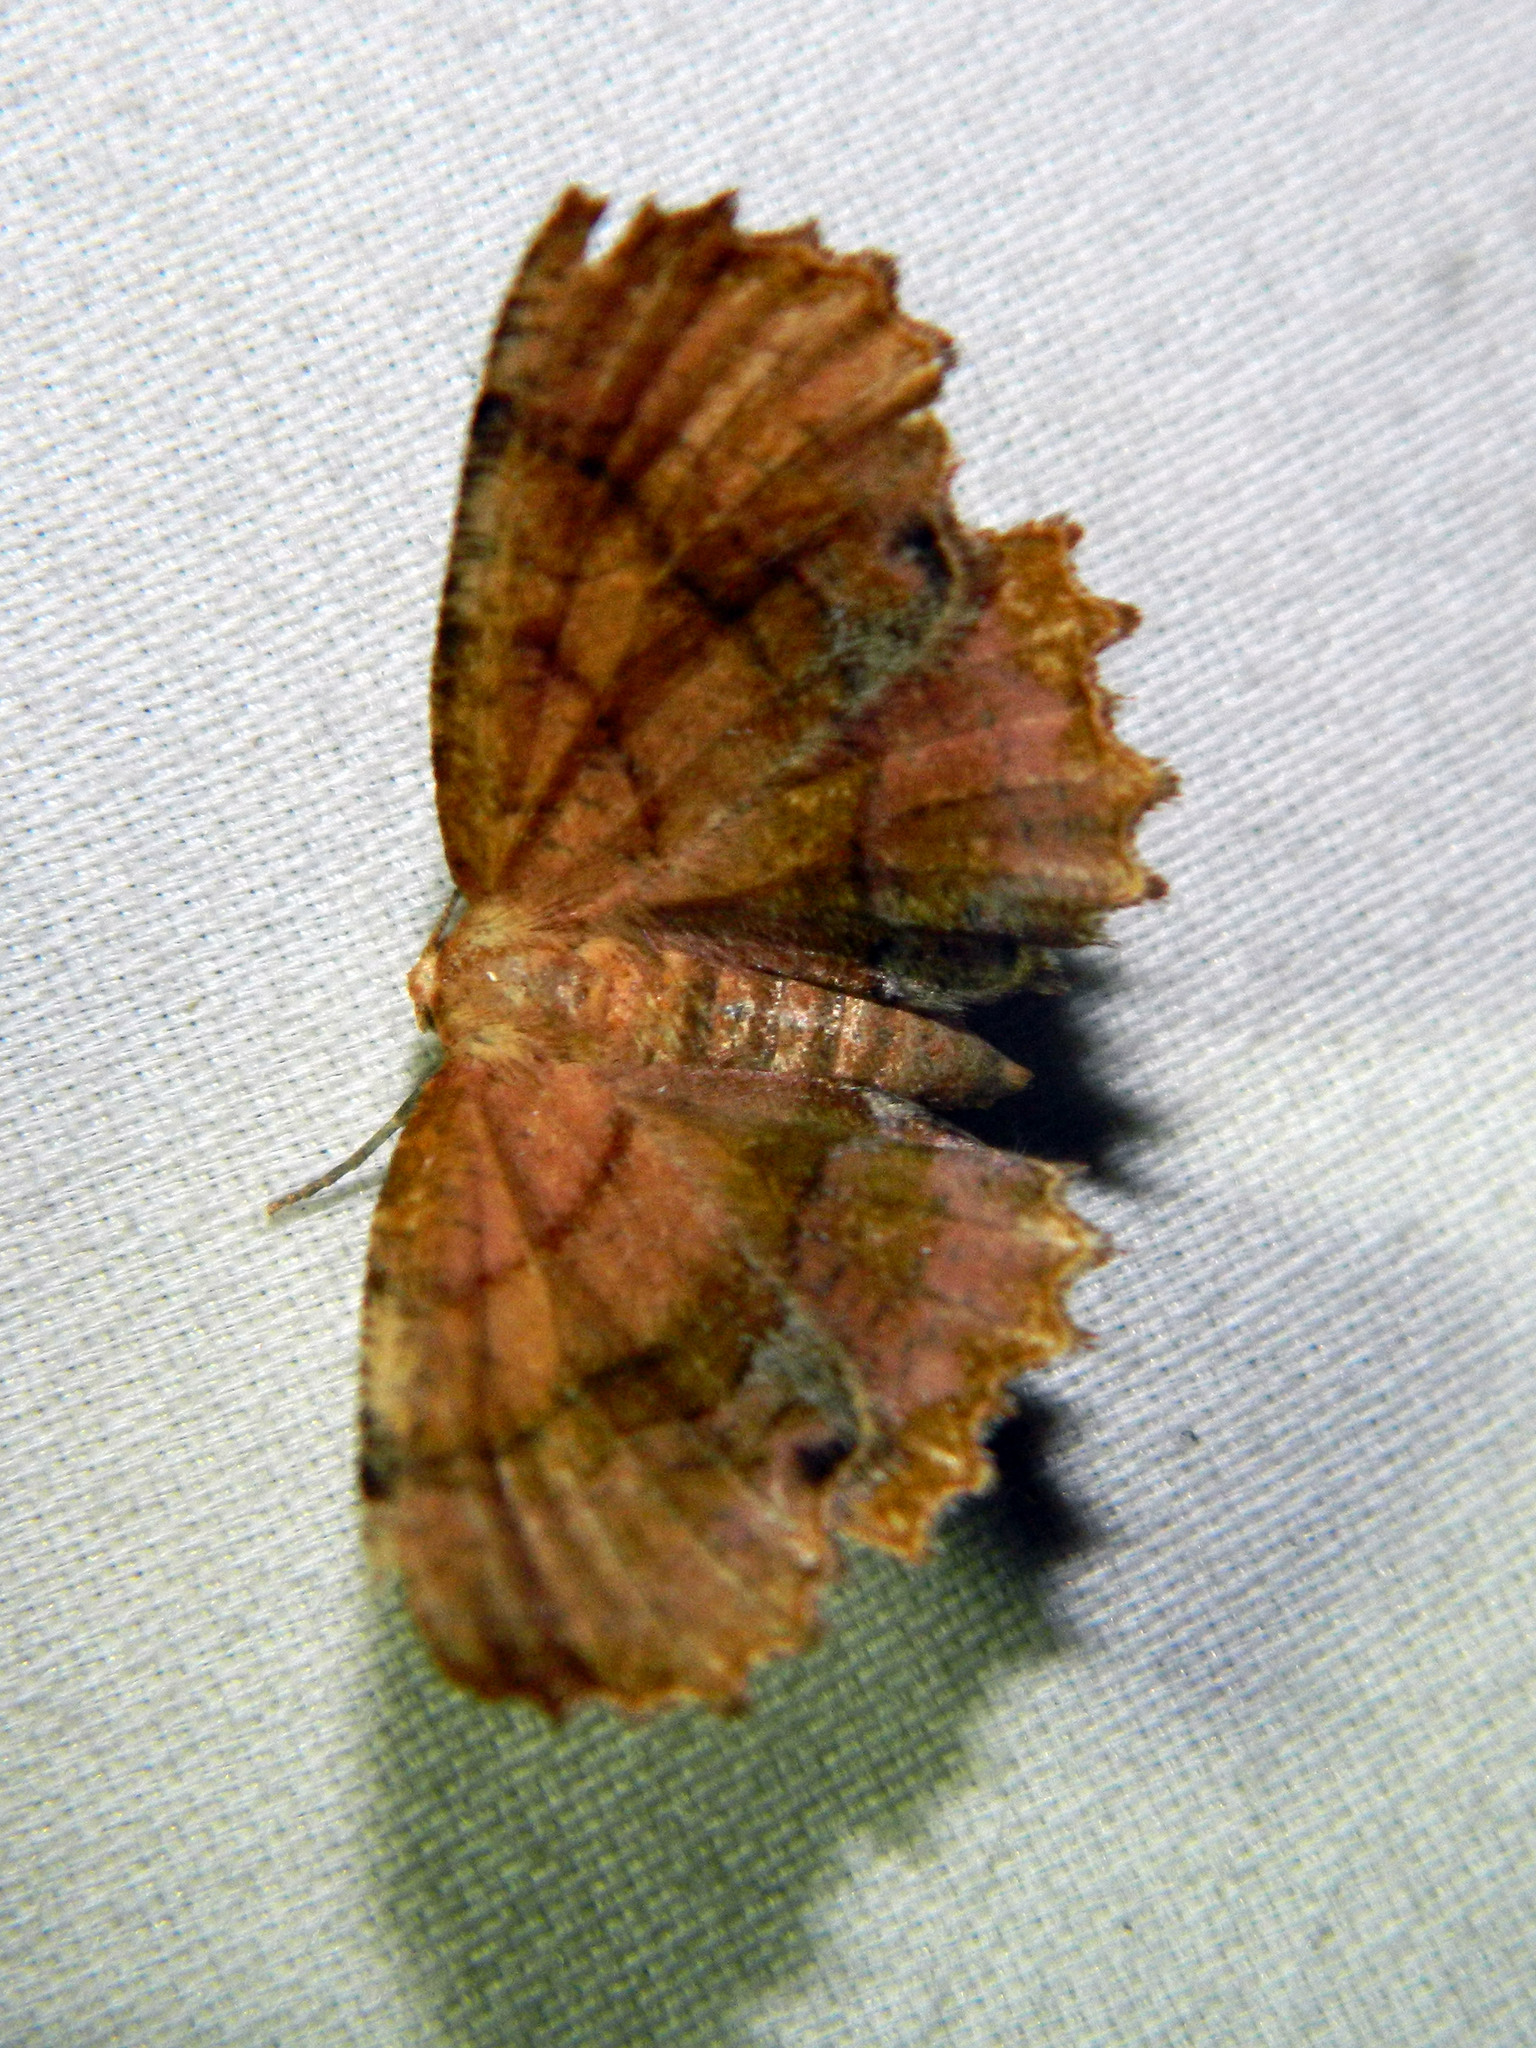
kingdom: Animalia
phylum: Arthropoda
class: Insecta
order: Lepidoptera
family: Geometridae
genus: Cepphis
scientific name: Cepphis armataria
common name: Scallop moth
